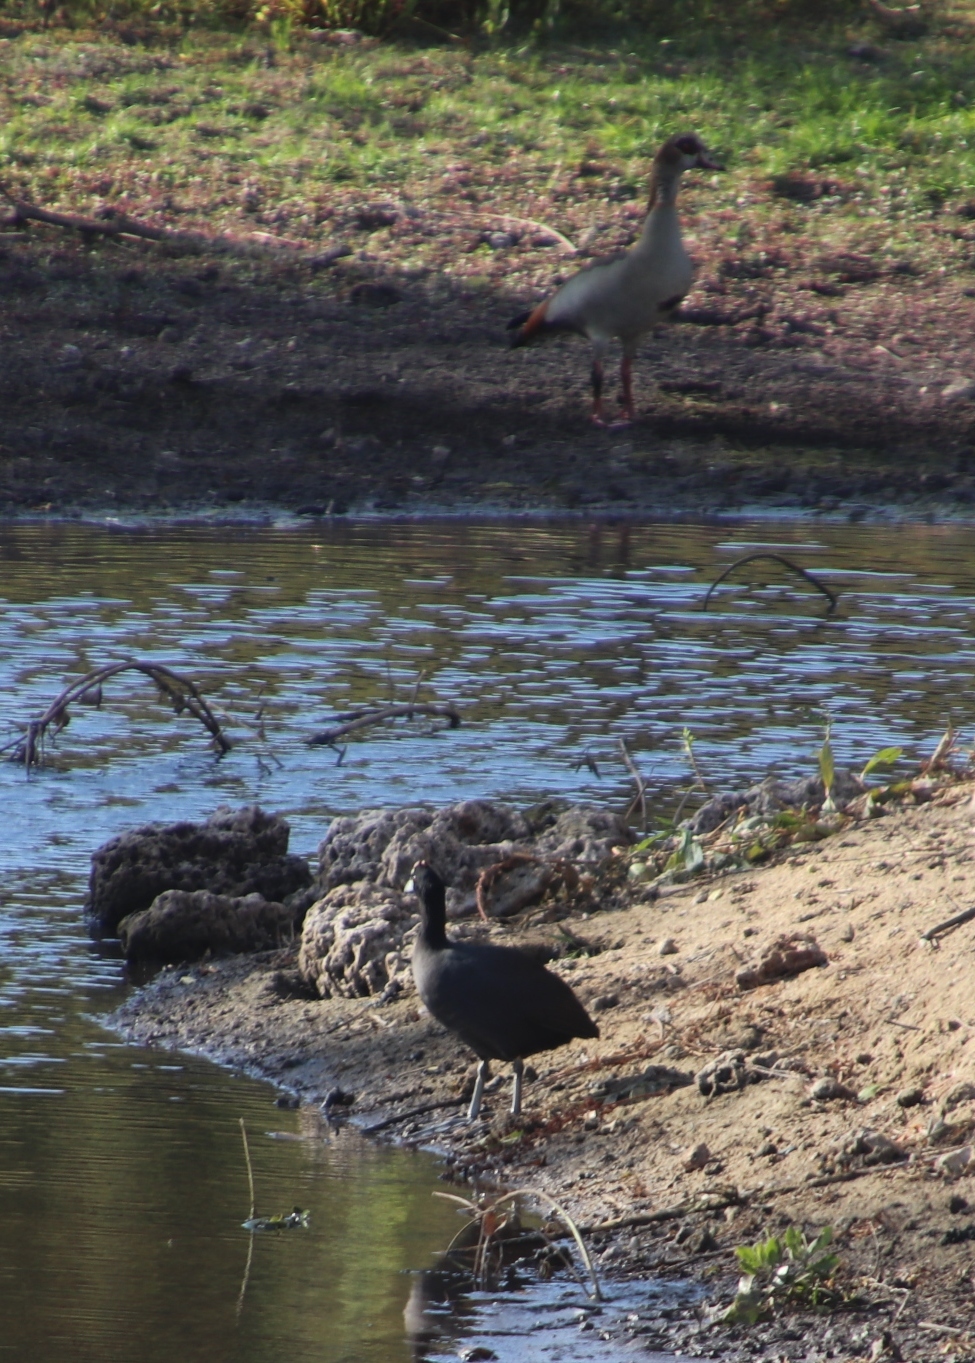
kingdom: Animalia
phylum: Chordata
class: Aves
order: Anseriformes
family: Anatidae
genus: Alopochen
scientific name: Alopochen aegyptiaca
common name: Egyptian goose
